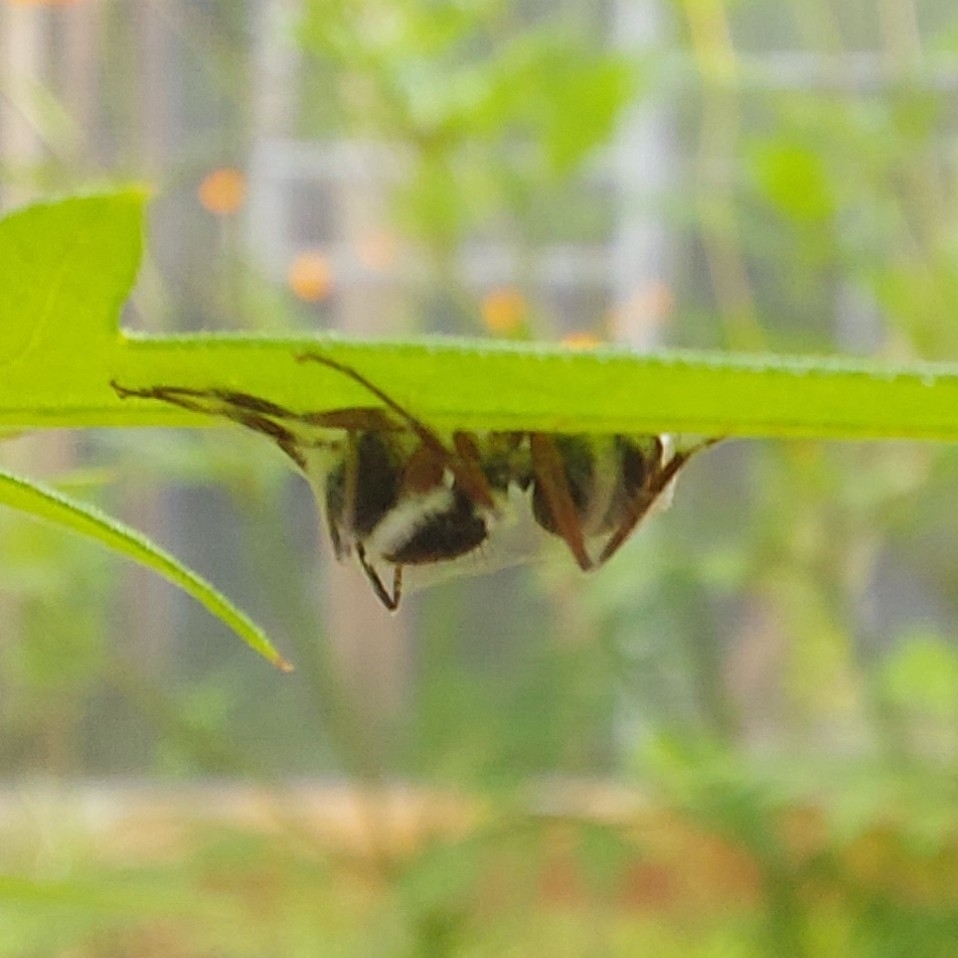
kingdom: Animalia
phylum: Arthropoda
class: Insecta
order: Hymenoptera
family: Formicidae
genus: Camponotus
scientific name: Camponotus rufipes
